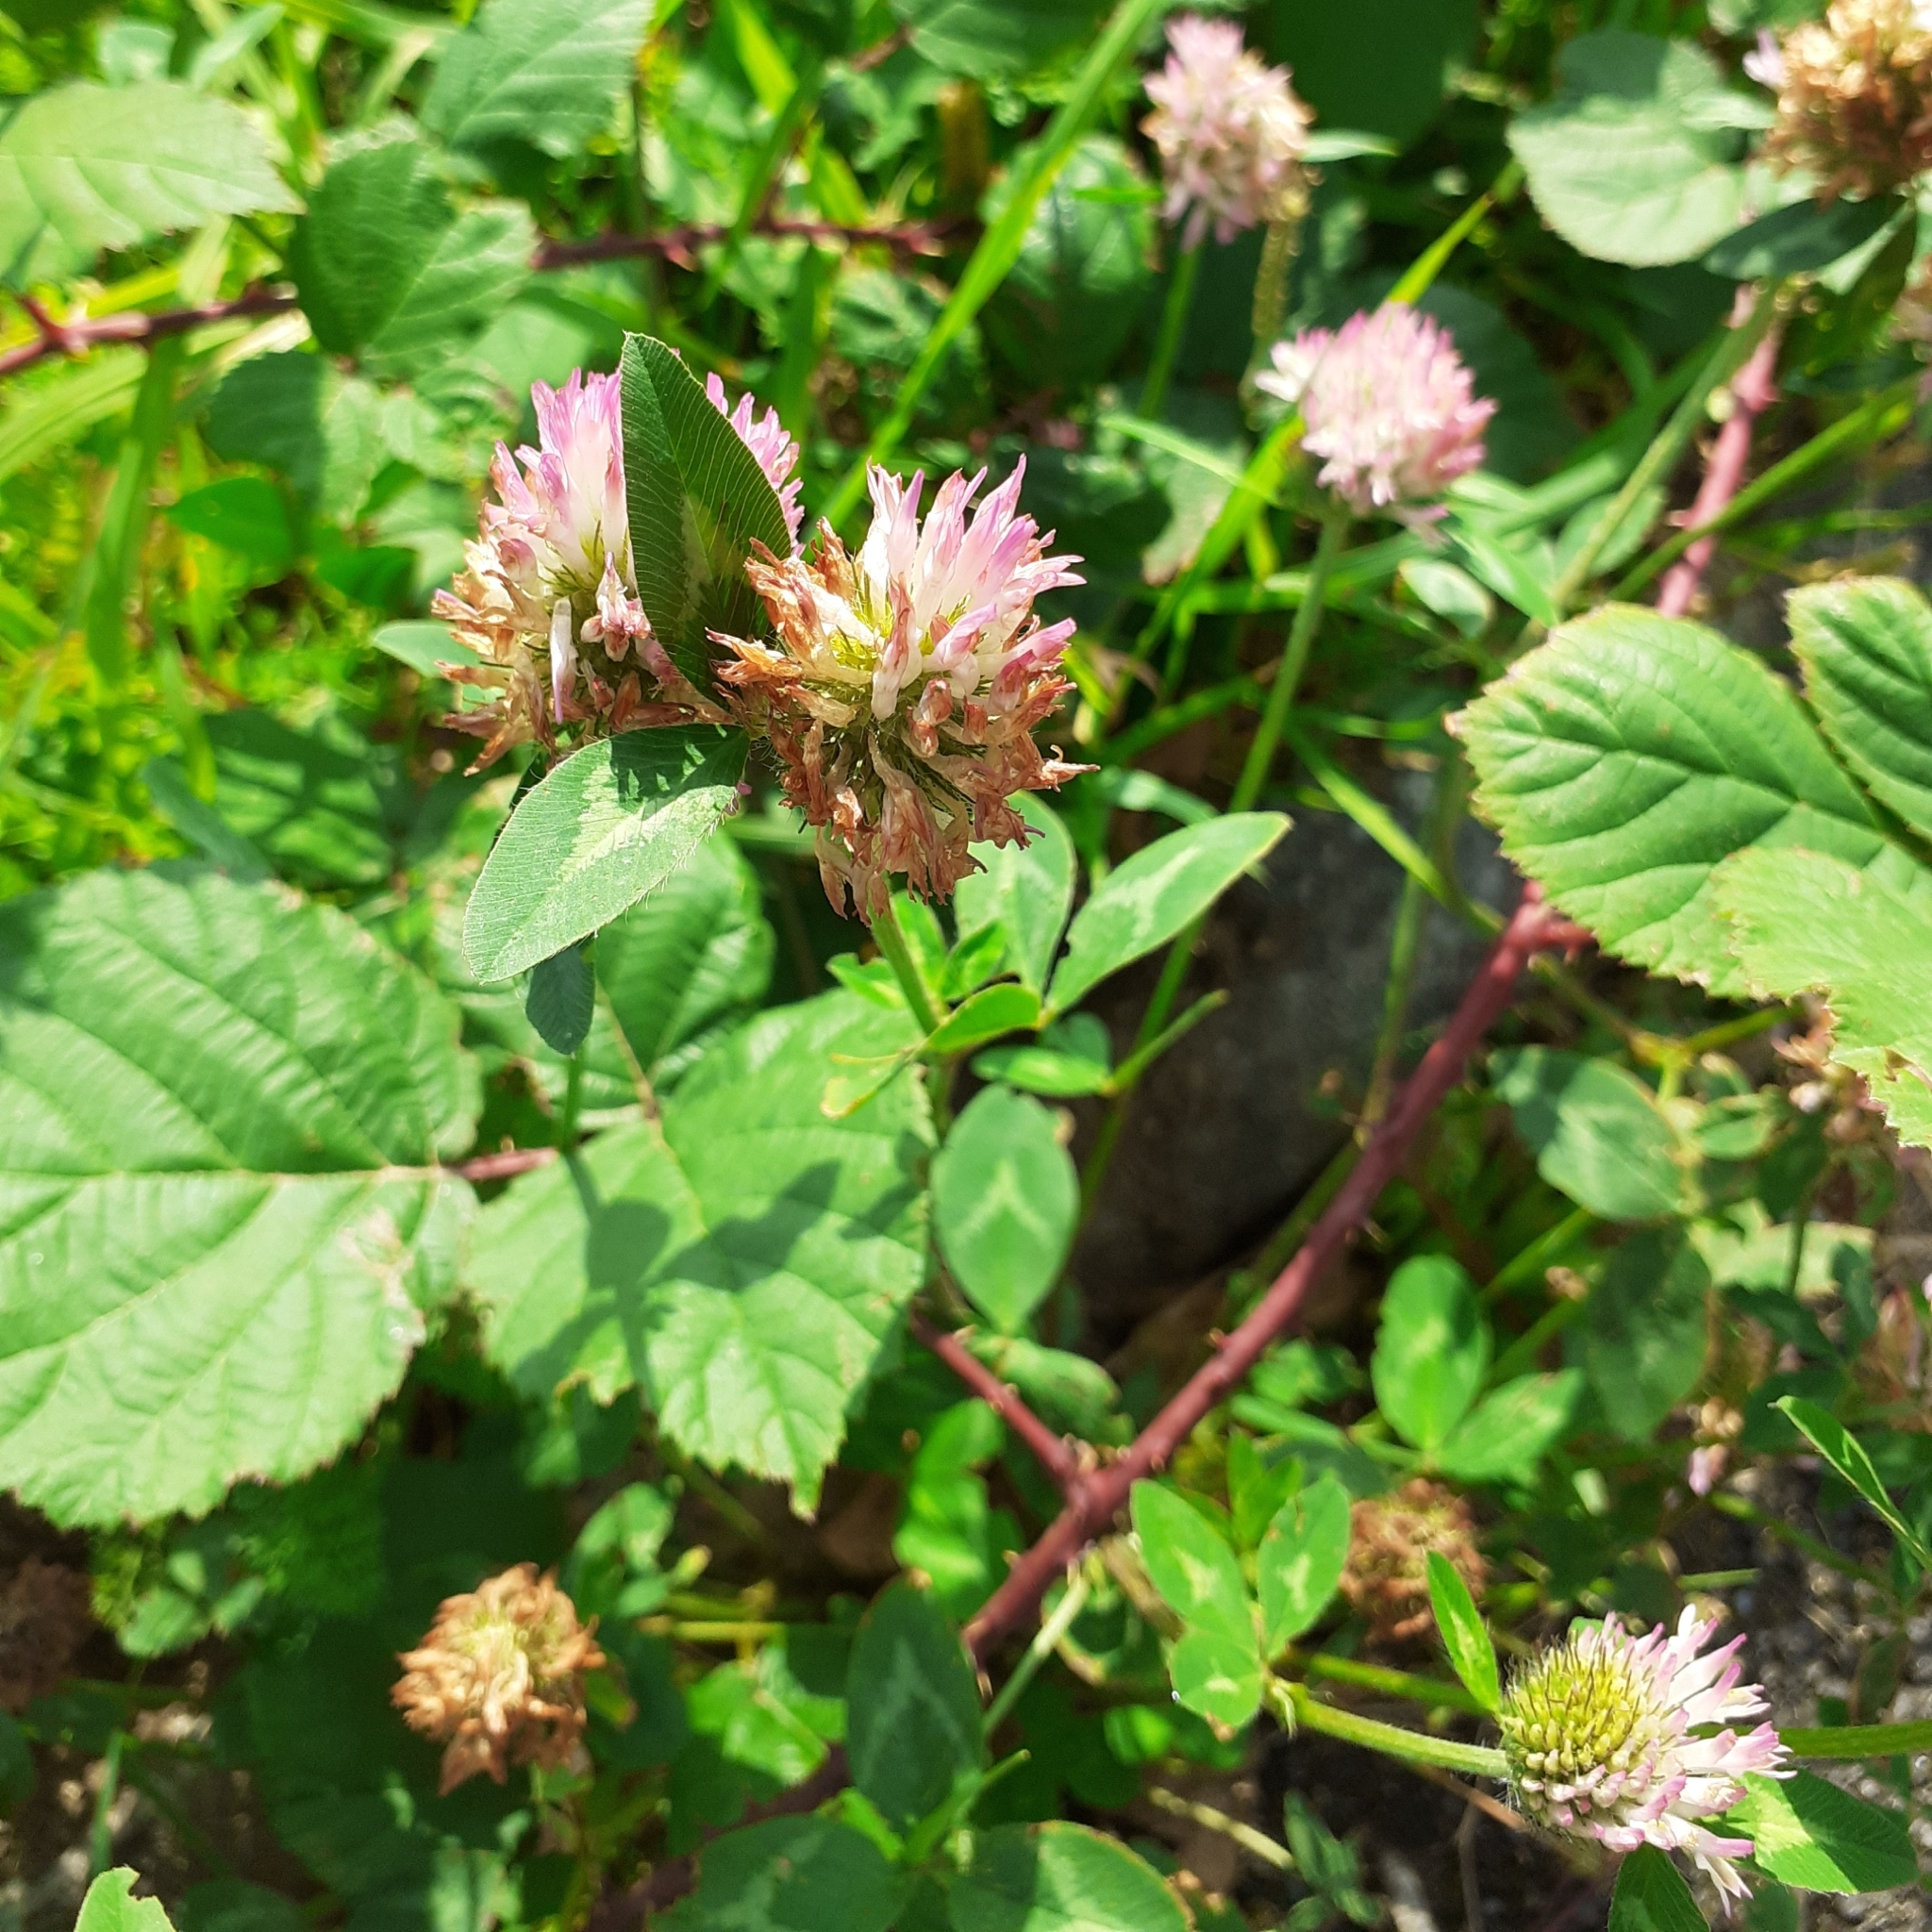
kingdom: Plantae
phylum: Tracheophyta
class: Magnoliopsida
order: Fabales
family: Fabaceae
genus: Trifolium
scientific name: Trifolium pratense
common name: Red clover
